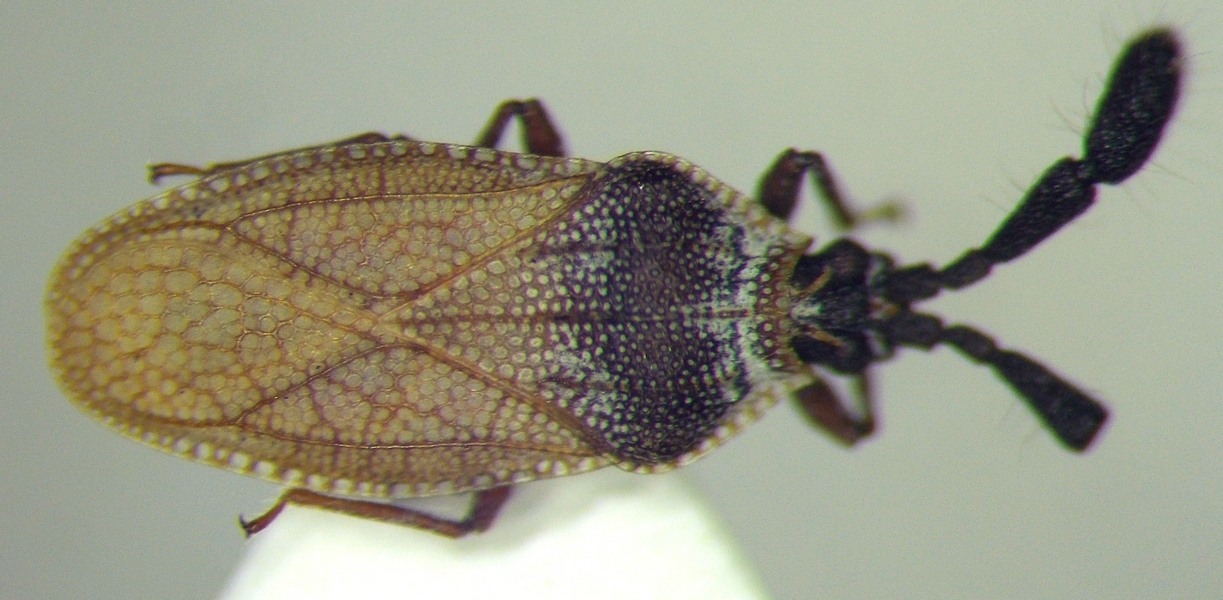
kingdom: Animalia
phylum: Arthropoda
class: Insecta
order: Hemiptera
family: Tingidae
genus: Copium
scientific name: Copium teucrii
